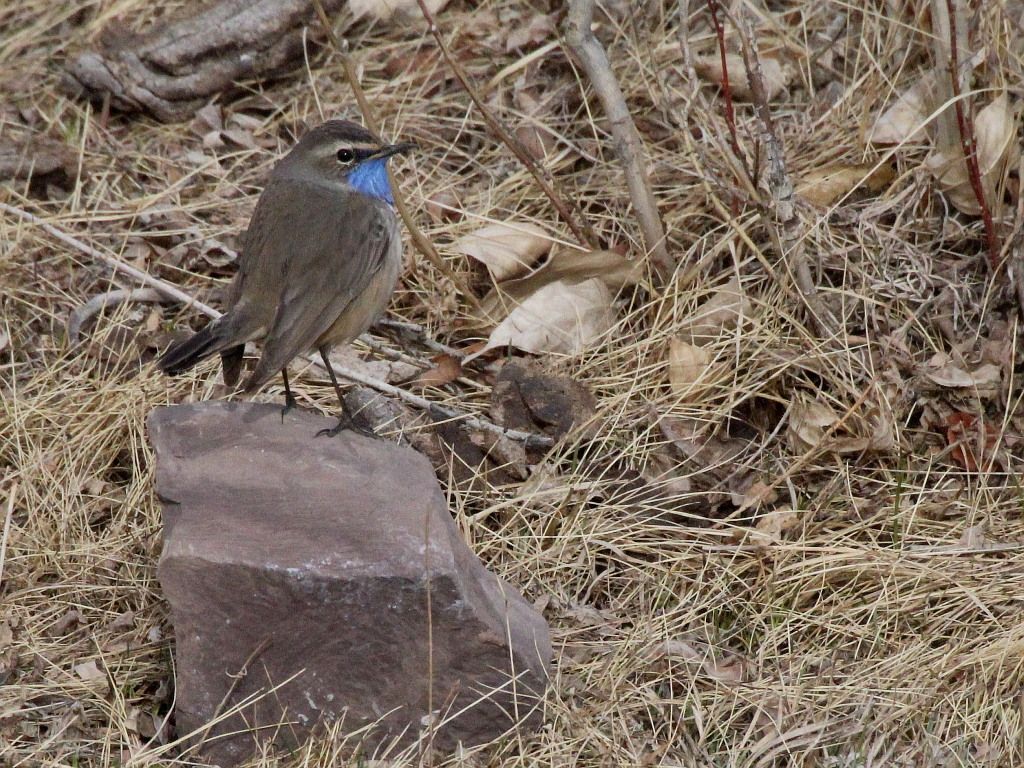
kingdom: Animalia
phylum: Chordata
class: Aves
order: Passeriformes
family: Muscicapidae
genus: Luscinia
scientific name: Luscinia svecica
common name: Bluethroat
